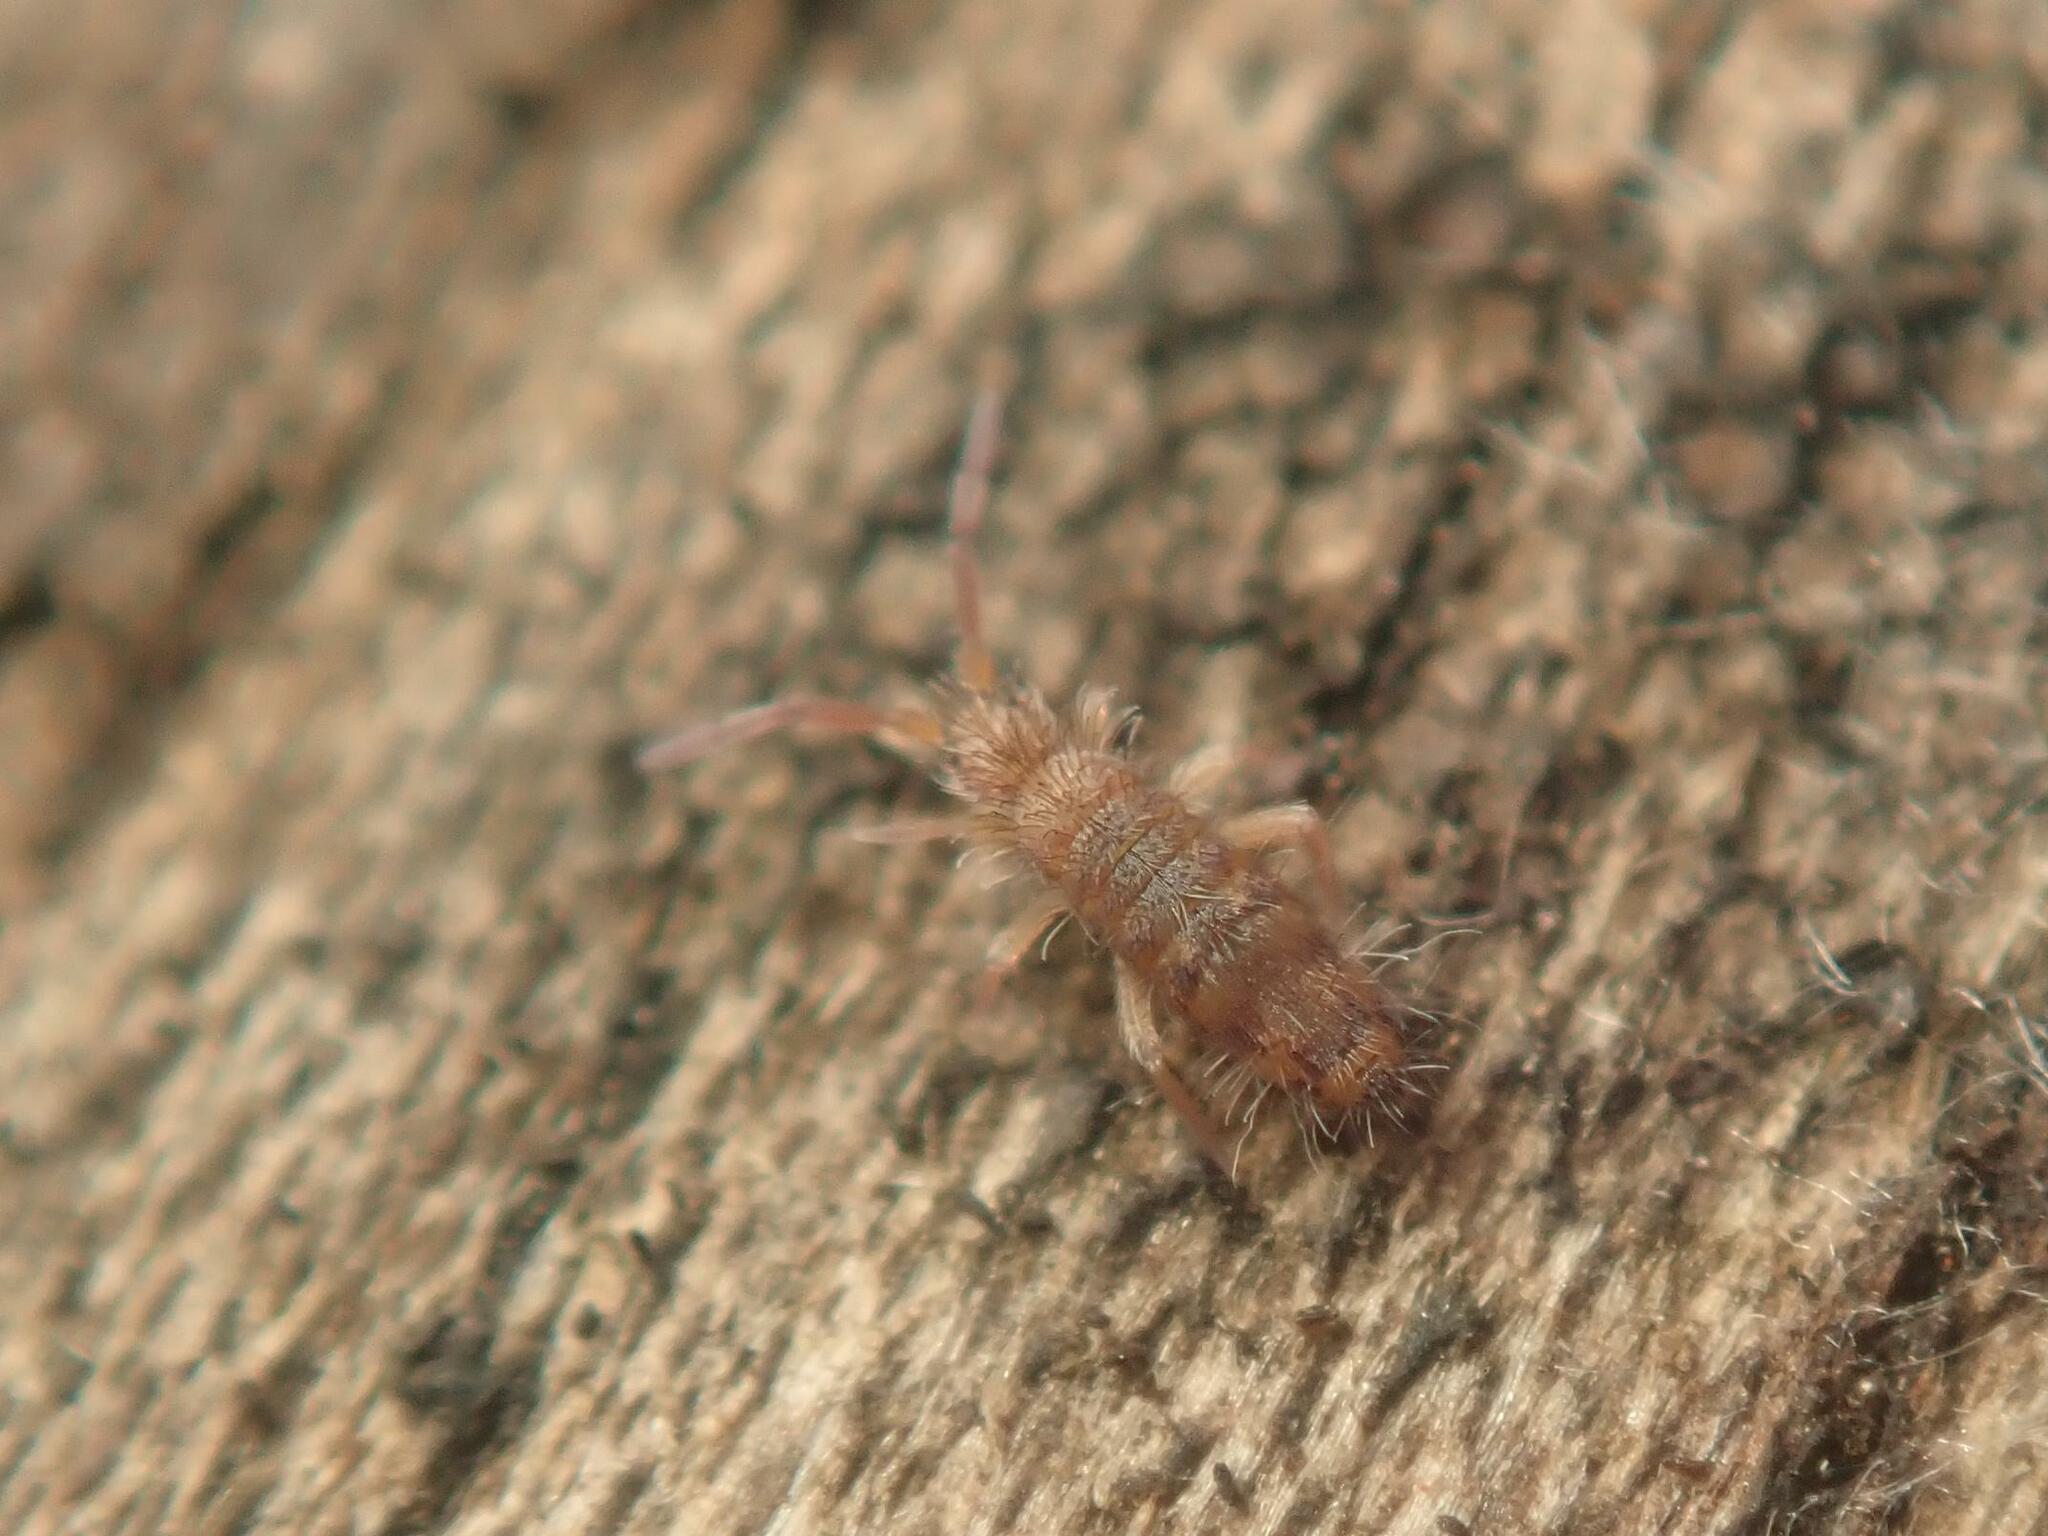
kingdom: Animalia
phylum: Arthropoda
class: Collembola
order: Entomobryomorpha
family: Entomobryidae
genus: Entomobrya
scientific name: Entomobrya multifasciata
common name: Springtail
